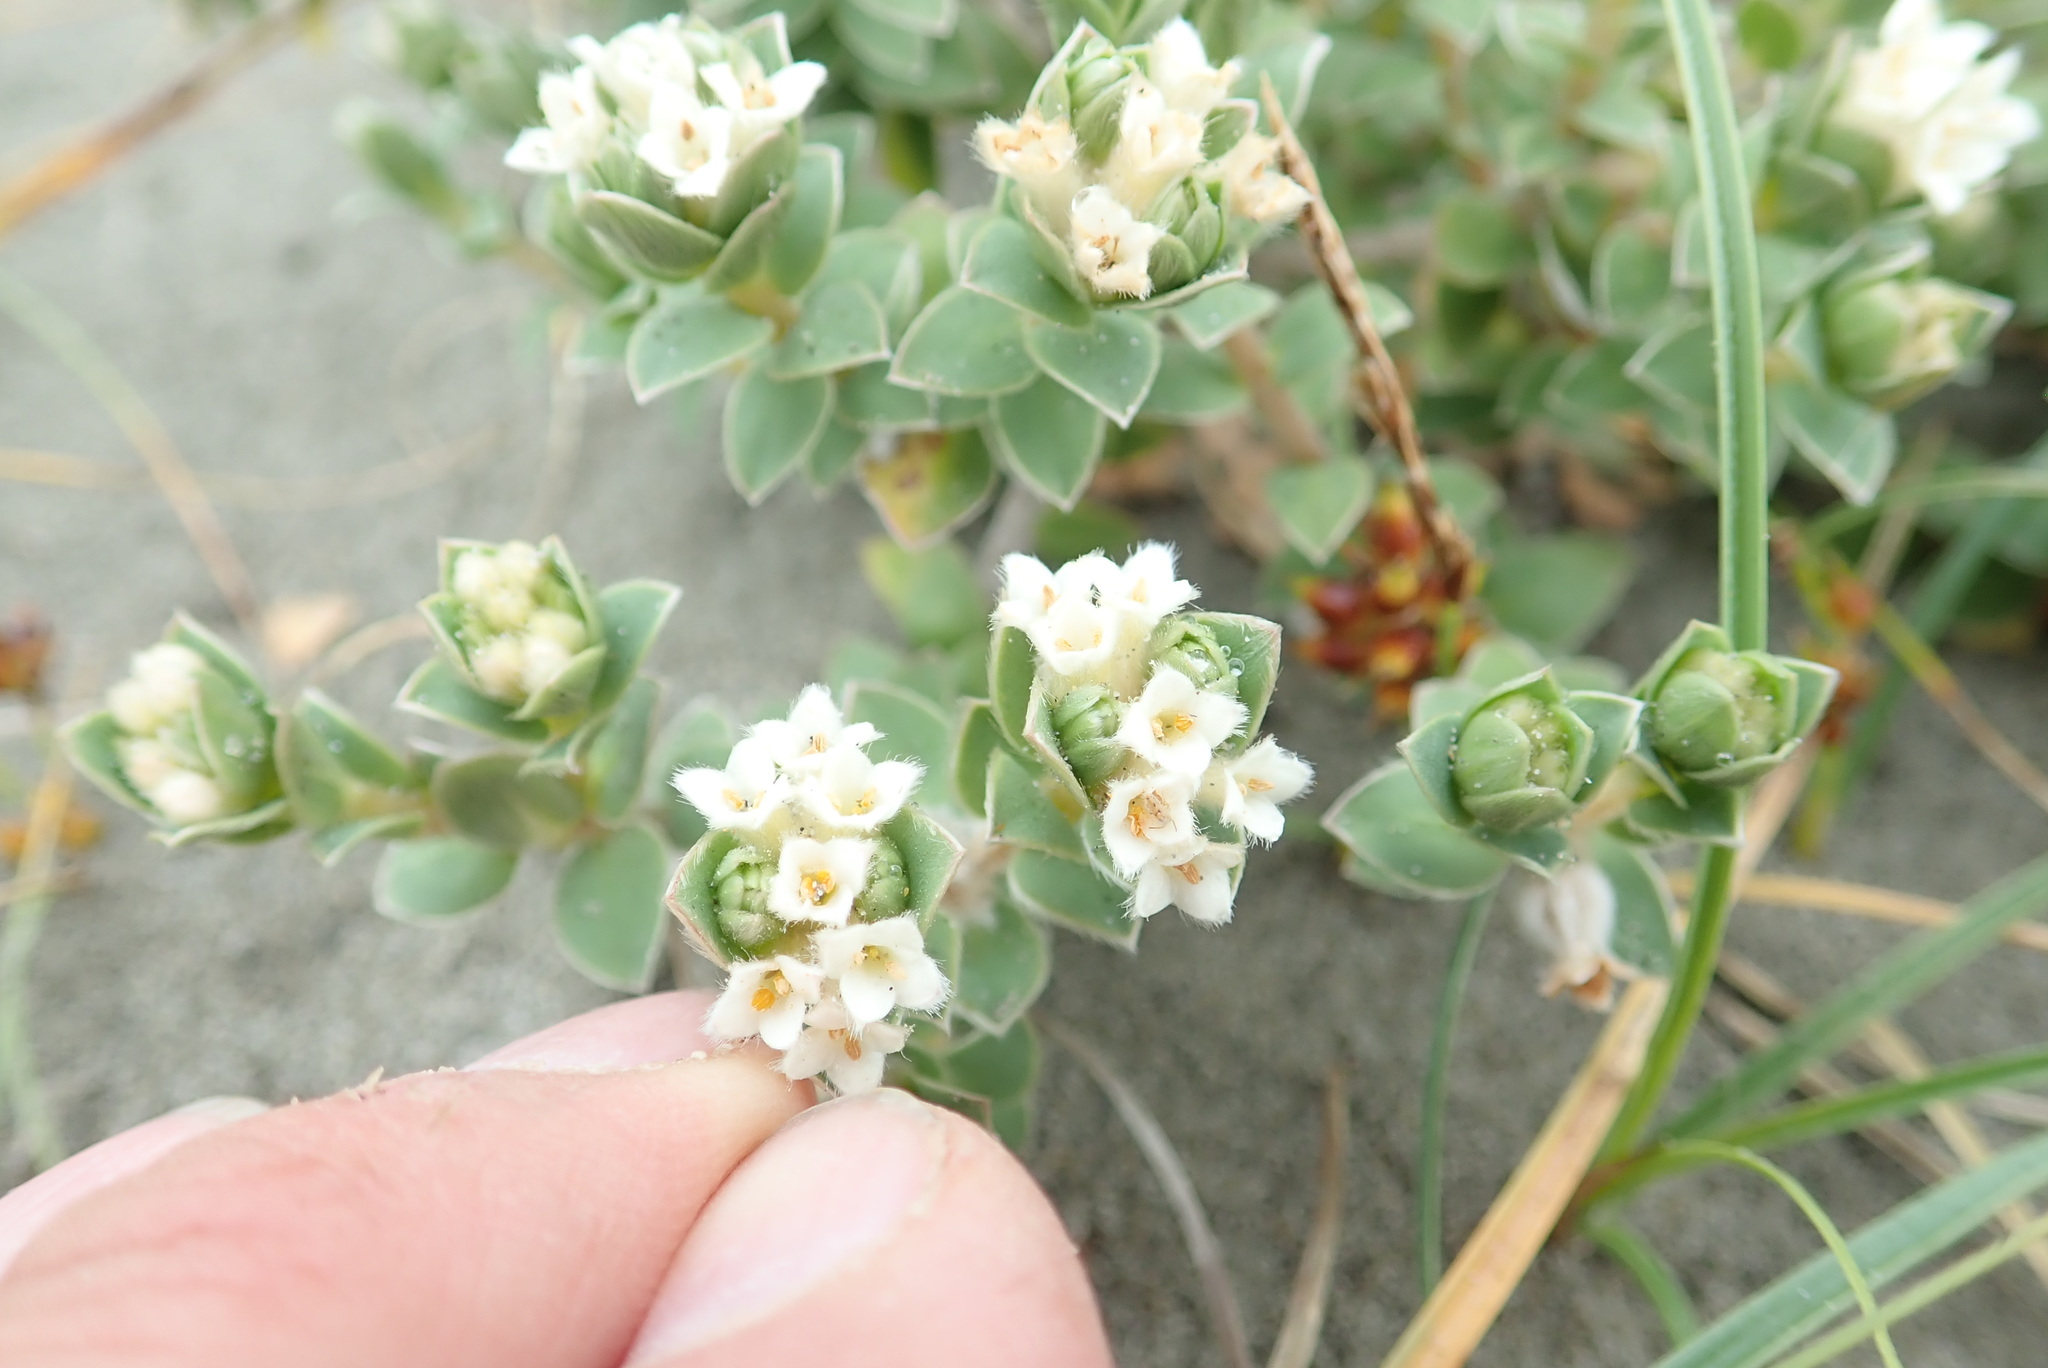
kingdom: Plantae
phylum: Tracheophyta
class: Magnoliopsida
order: Malvales
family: Thymelaeaceae
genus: Pimelea
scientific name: Pimelea villosa
